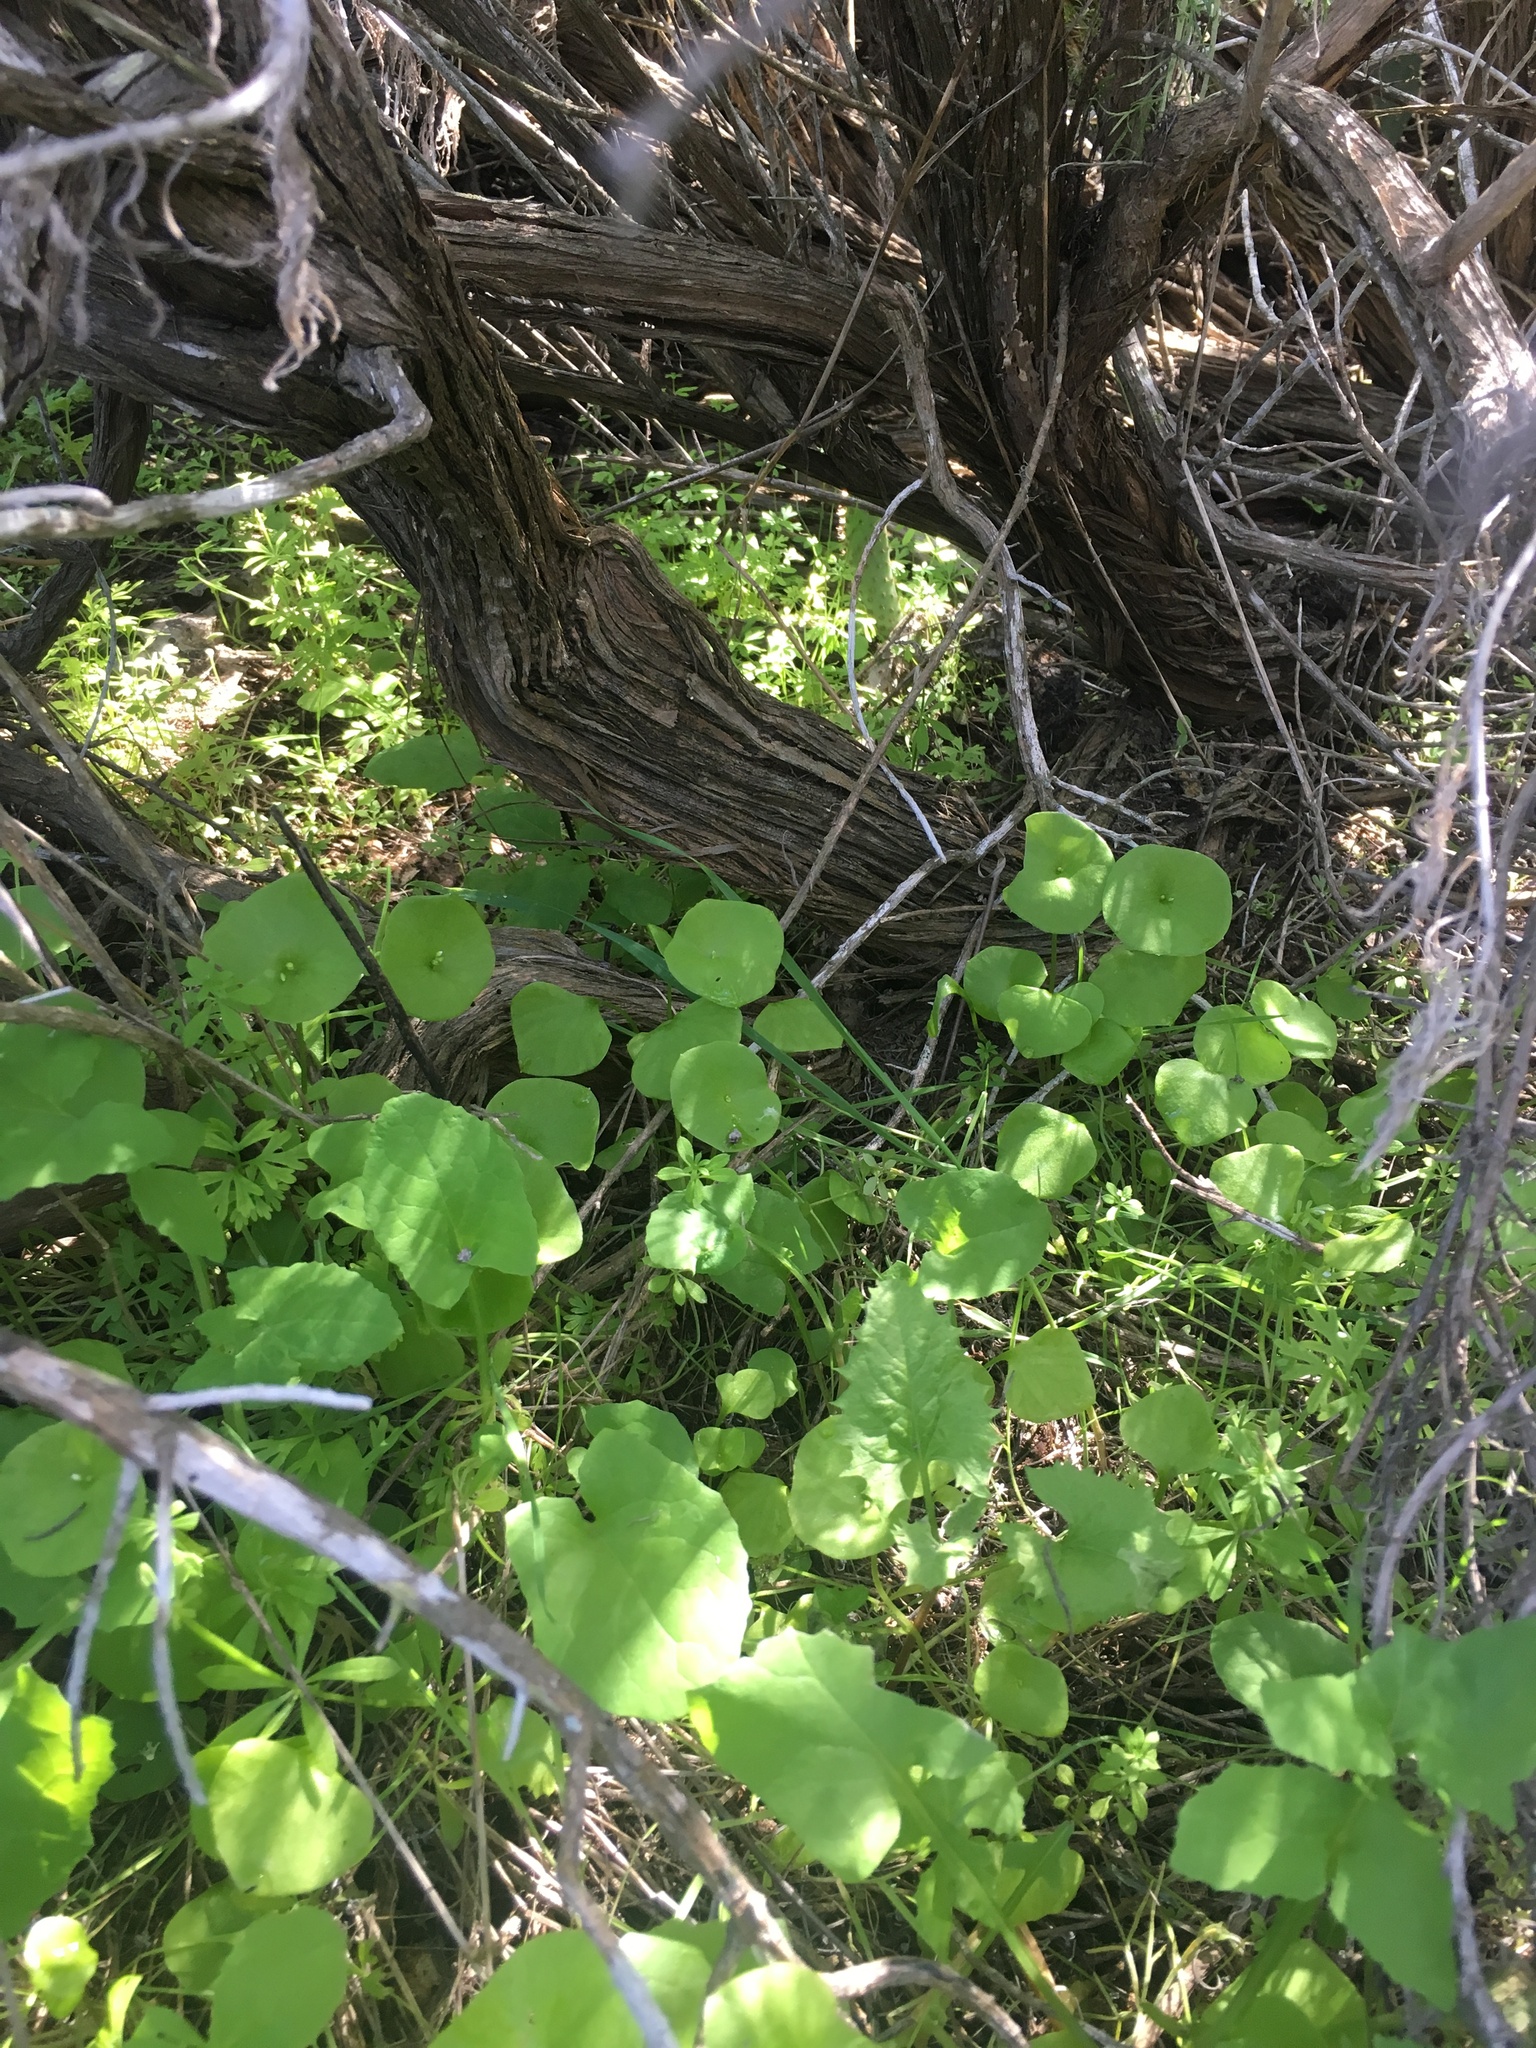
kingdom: Plantae
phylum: Tracheophyta
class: Magnoliopsida
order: Asterales
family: Asteraceae
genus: Sonchus
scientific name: Sonchus oleraceus
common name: Common sowthistle
